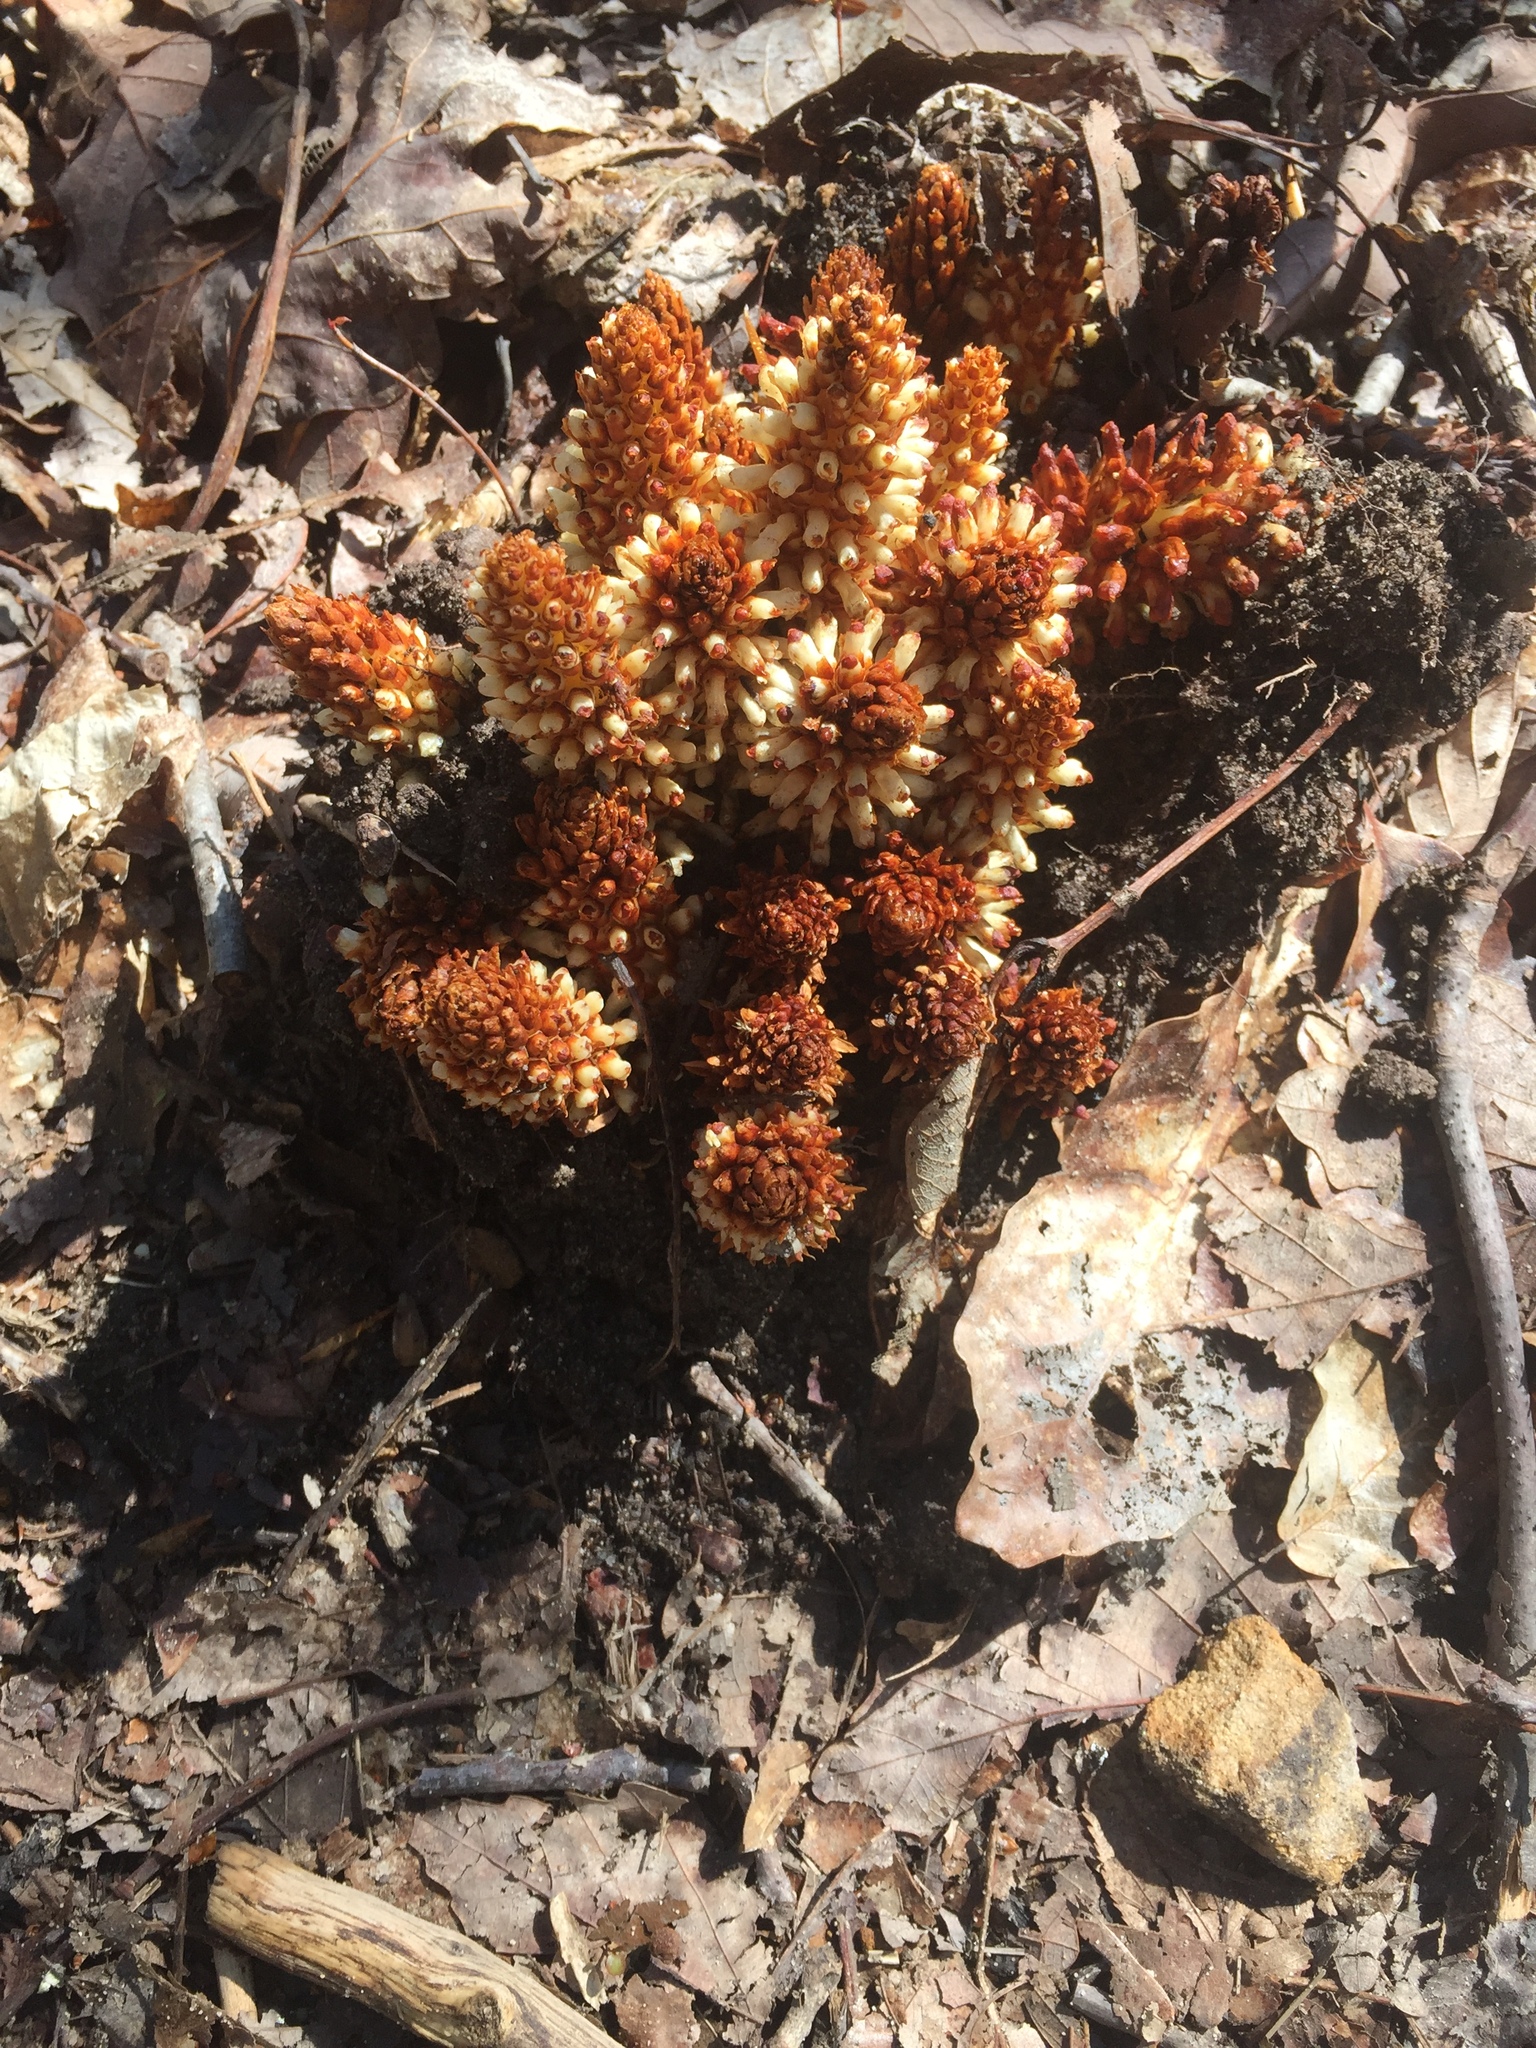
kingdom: Plantae
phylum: Tracheophyta
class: Magnoliopsida
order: Lamiales
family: Orobanchaceae
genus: Conopholis
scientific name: Conopholis americana
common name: American cancer-root
